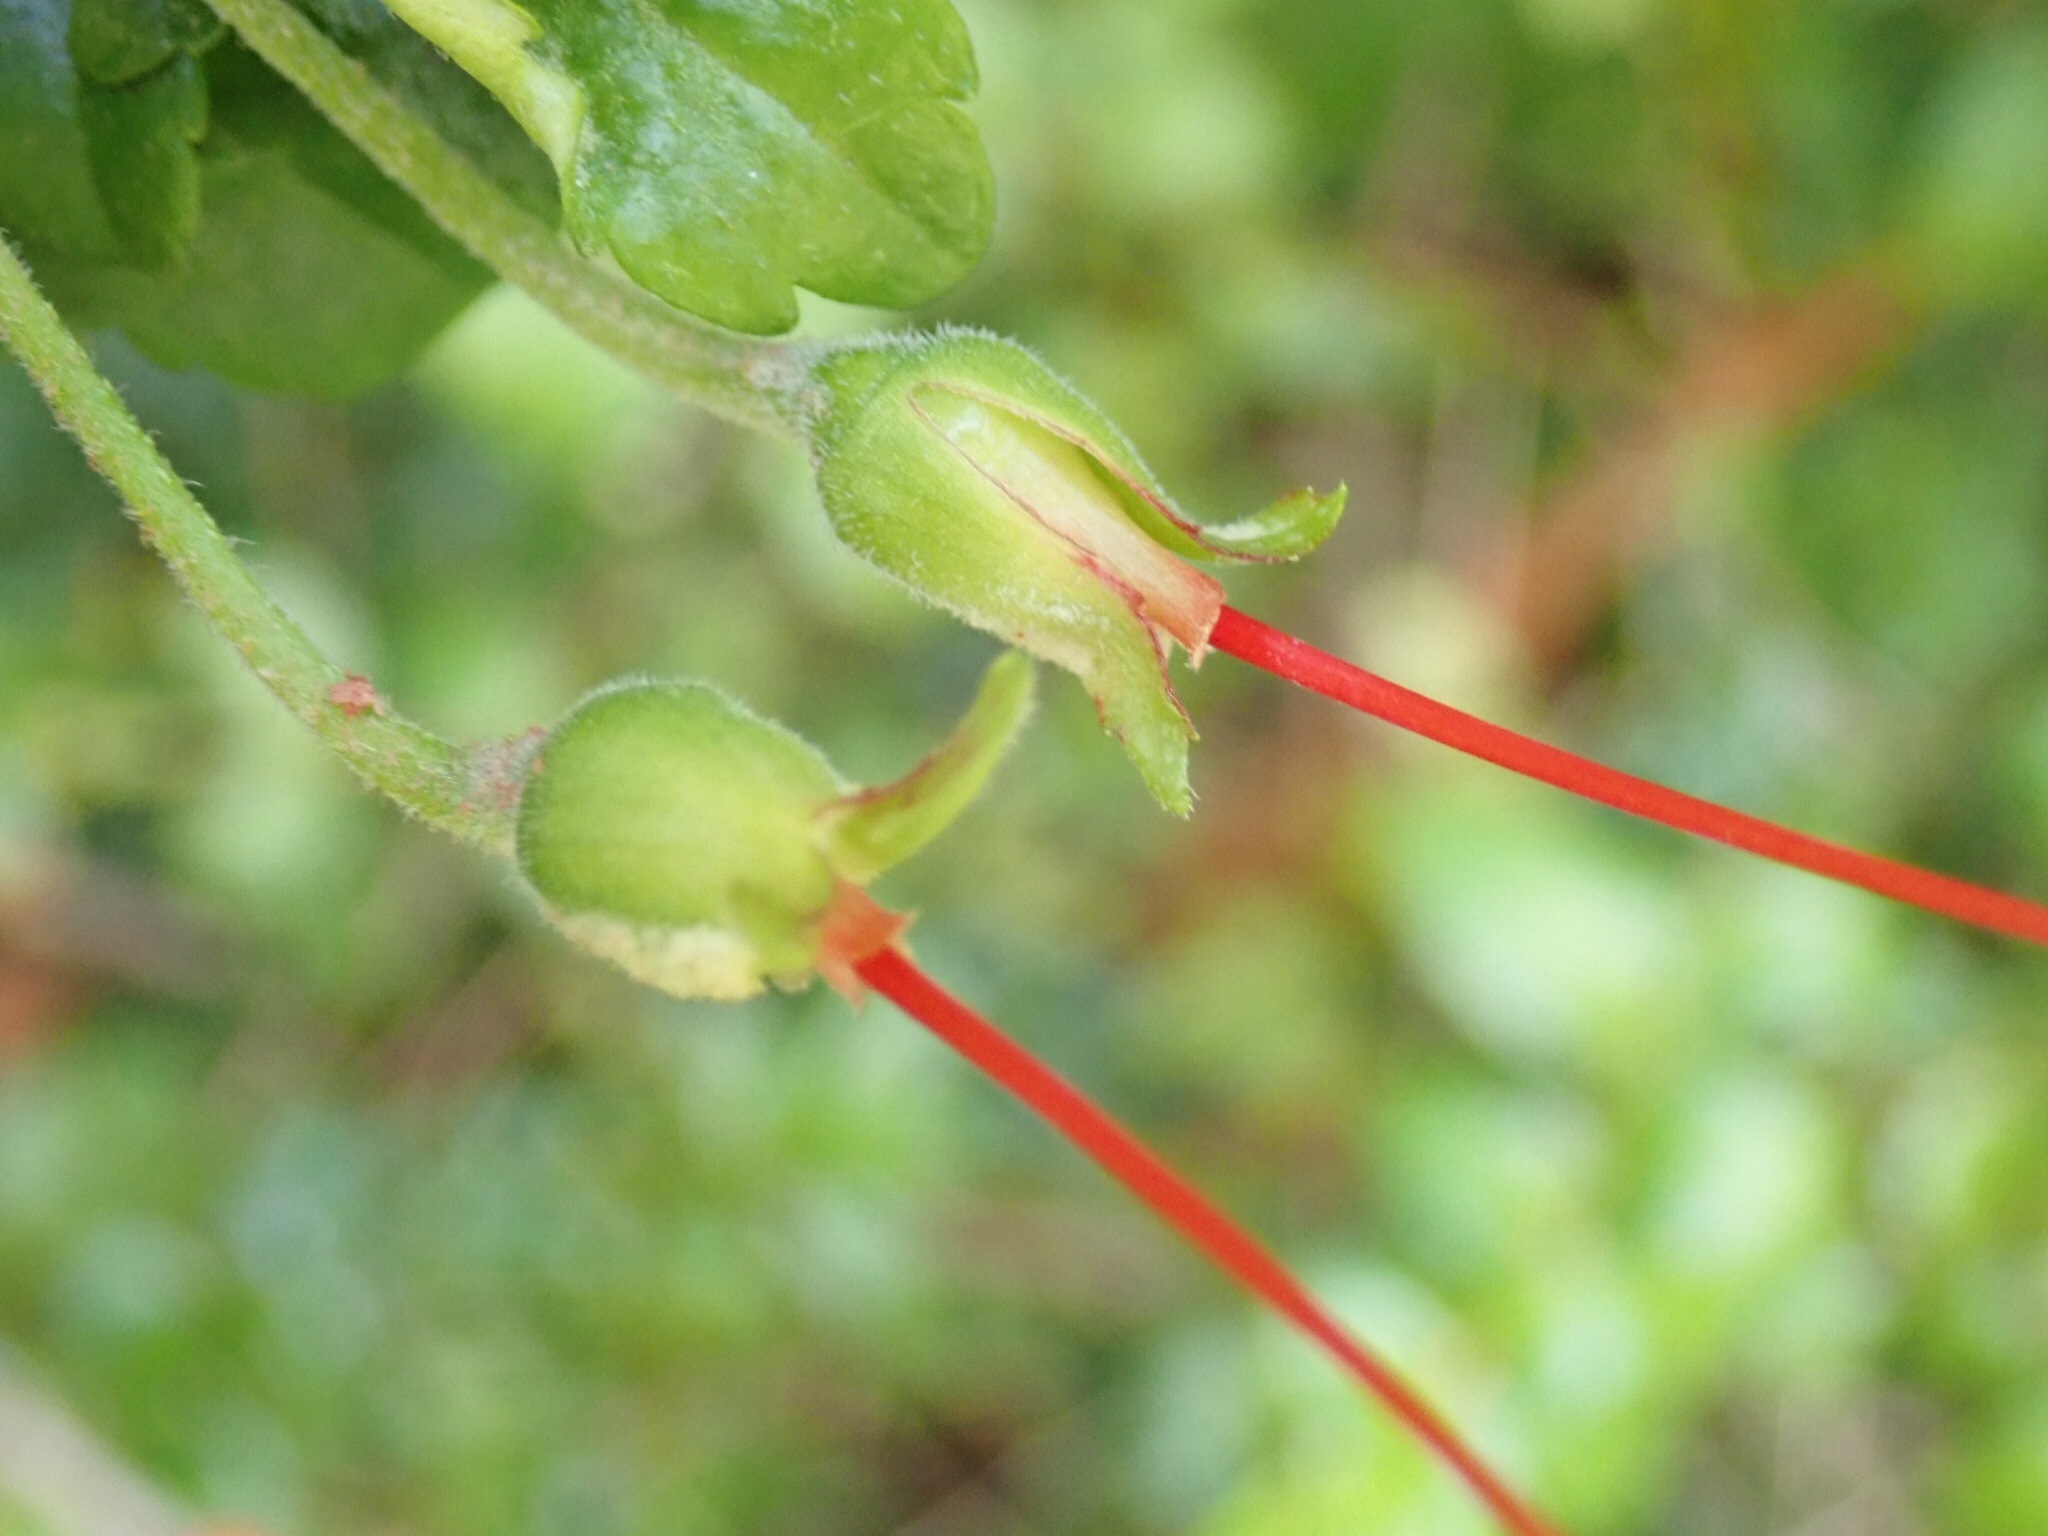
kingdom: Plantae
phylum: Tracheophyta
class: Magnoliopsida
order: Lamiales
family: Gesneriaceae
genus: Mitraria
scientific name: Mitraria coccinea
